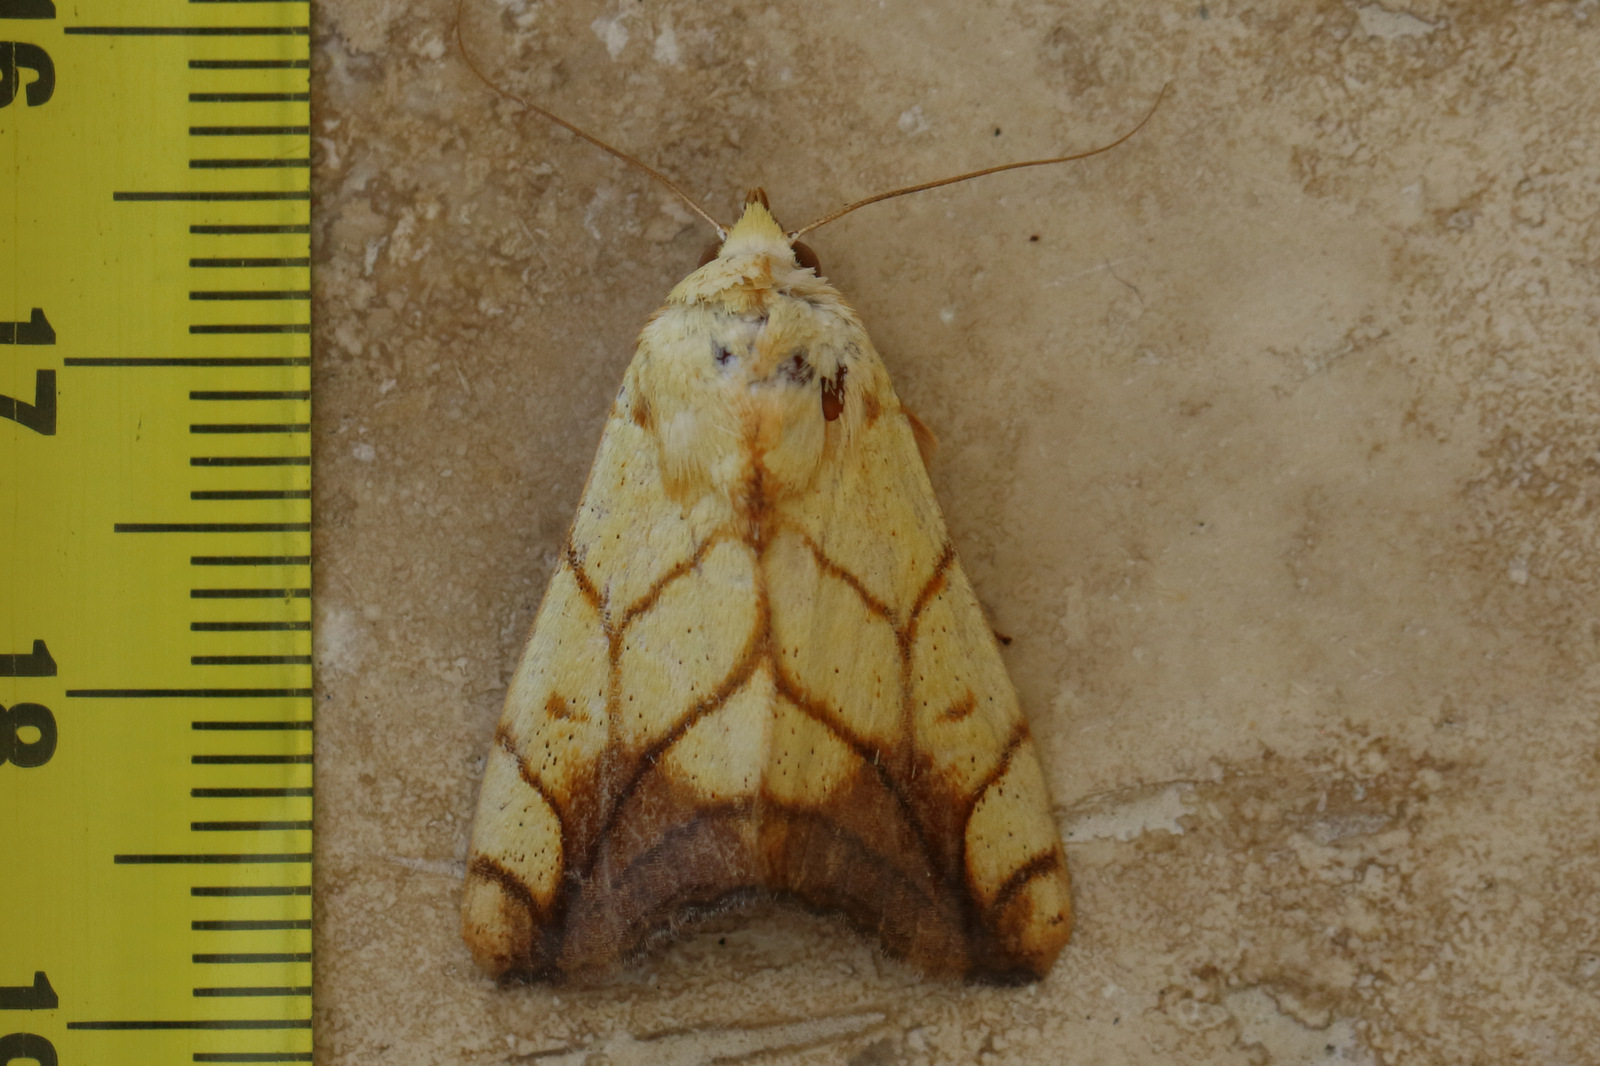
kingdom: Animalia
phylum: Arthropoda
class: Insecta
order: Lepidoptera
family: Nolidae
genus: Xanthodes
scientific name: Xanthodes transversa
